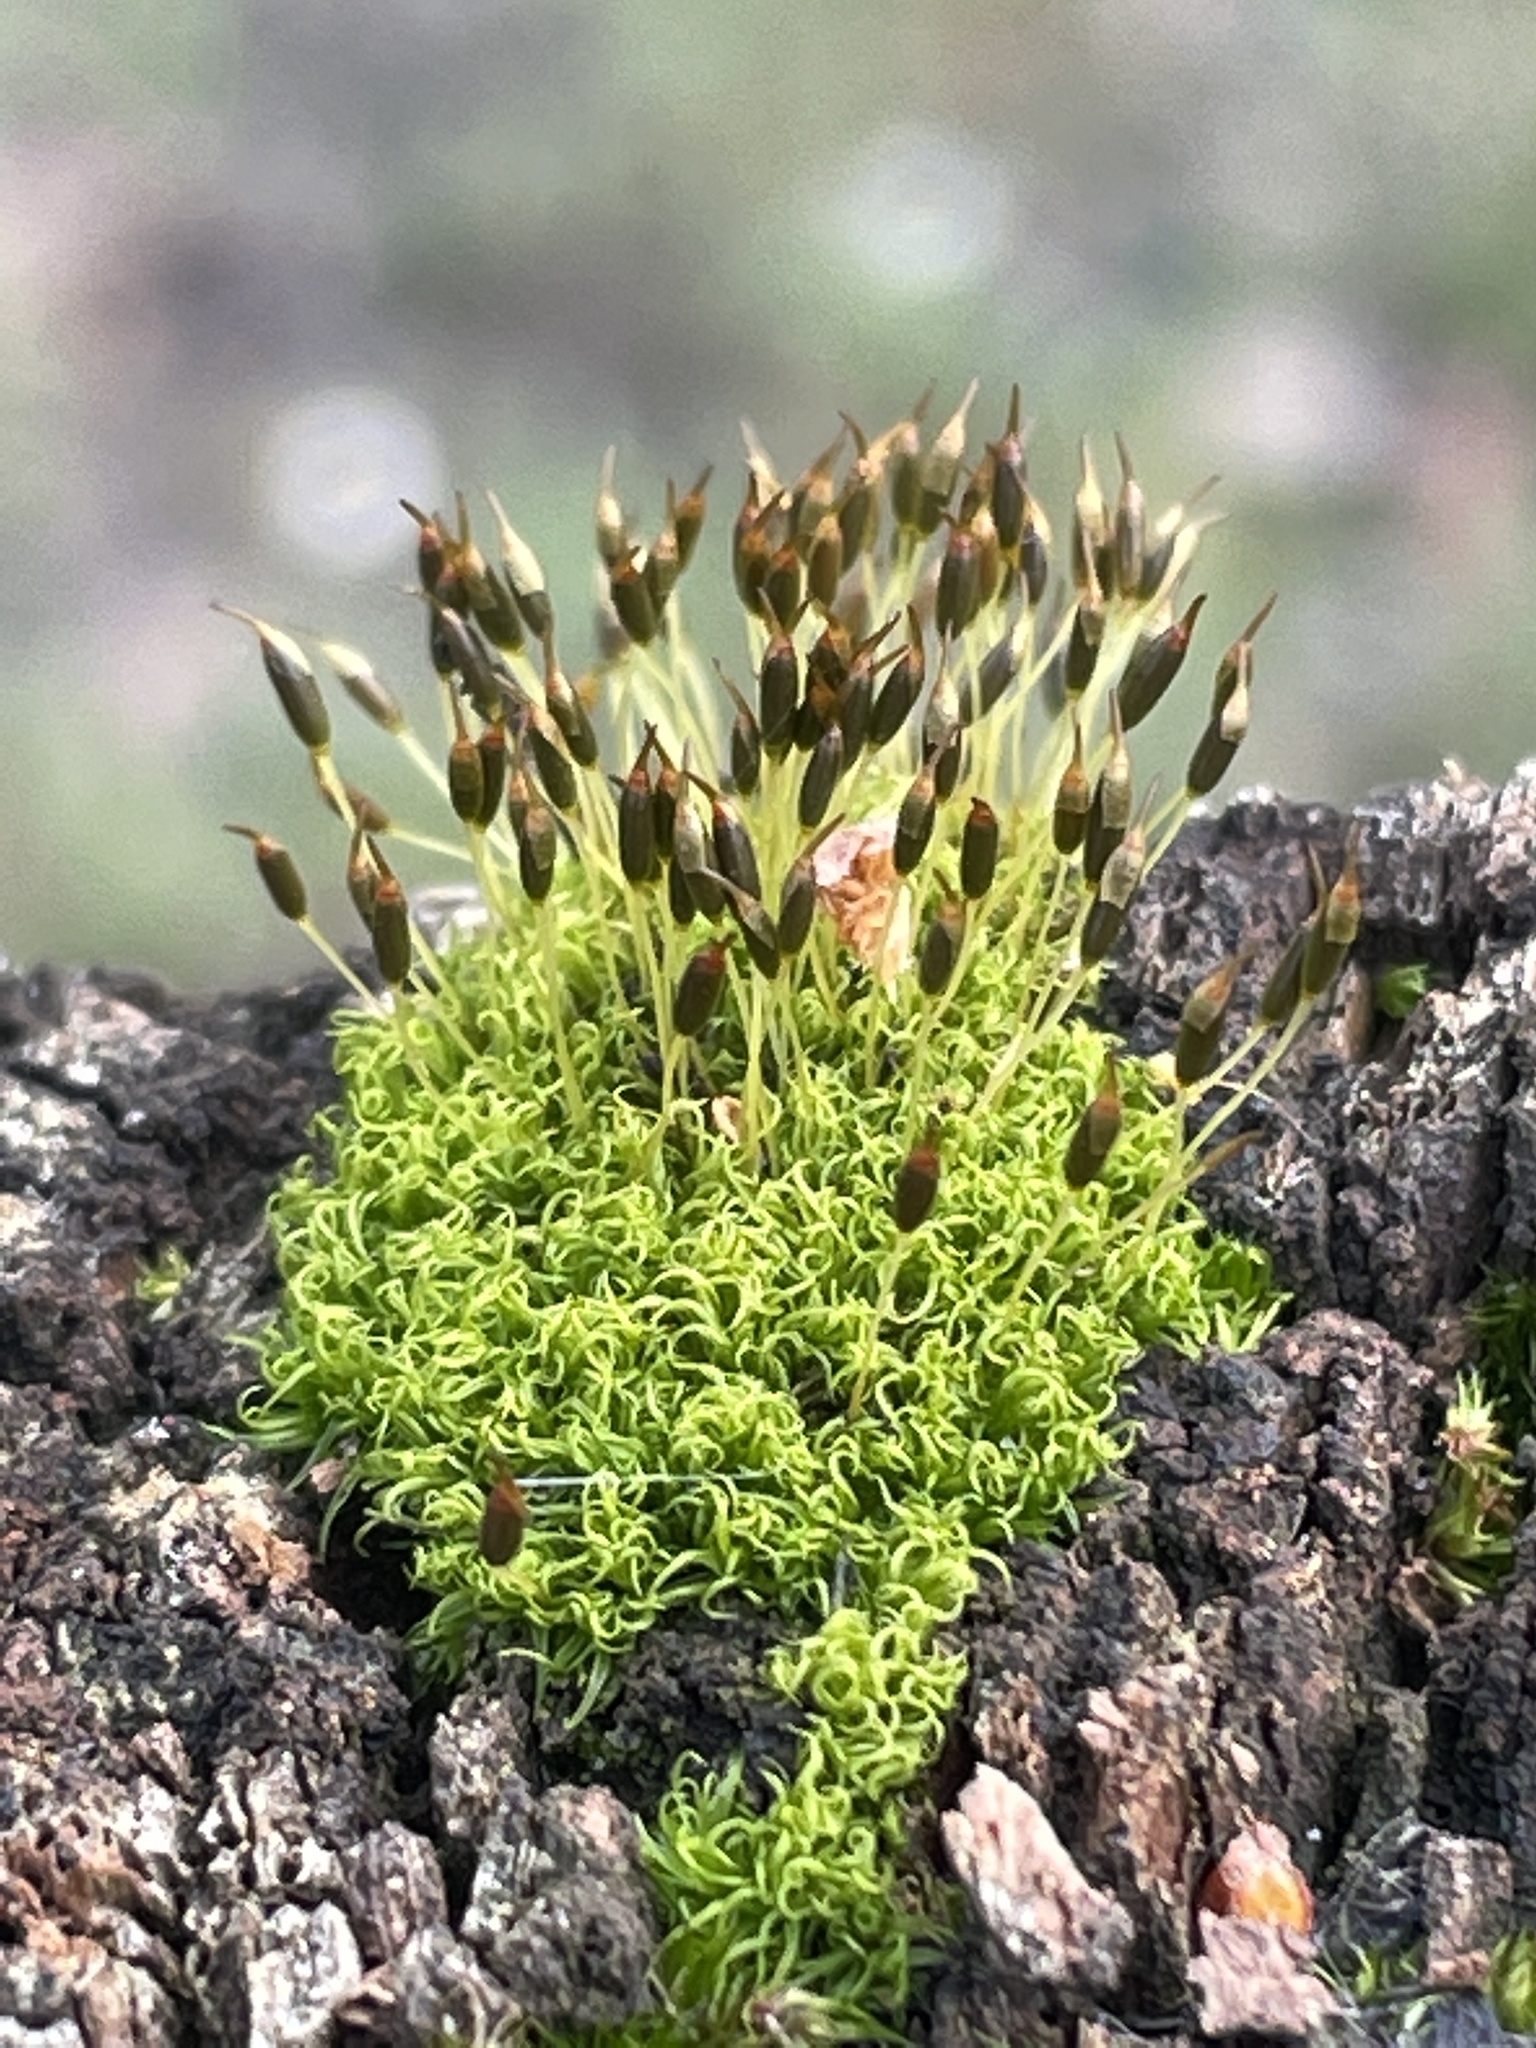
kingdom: Plantae
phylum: Bryophyta
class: Bryopsida
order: Dicranales
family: Rhabdoweisiaceae
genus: Dicranoweisia
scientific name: Dicranoweisia cirrata
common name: Common pincushion
